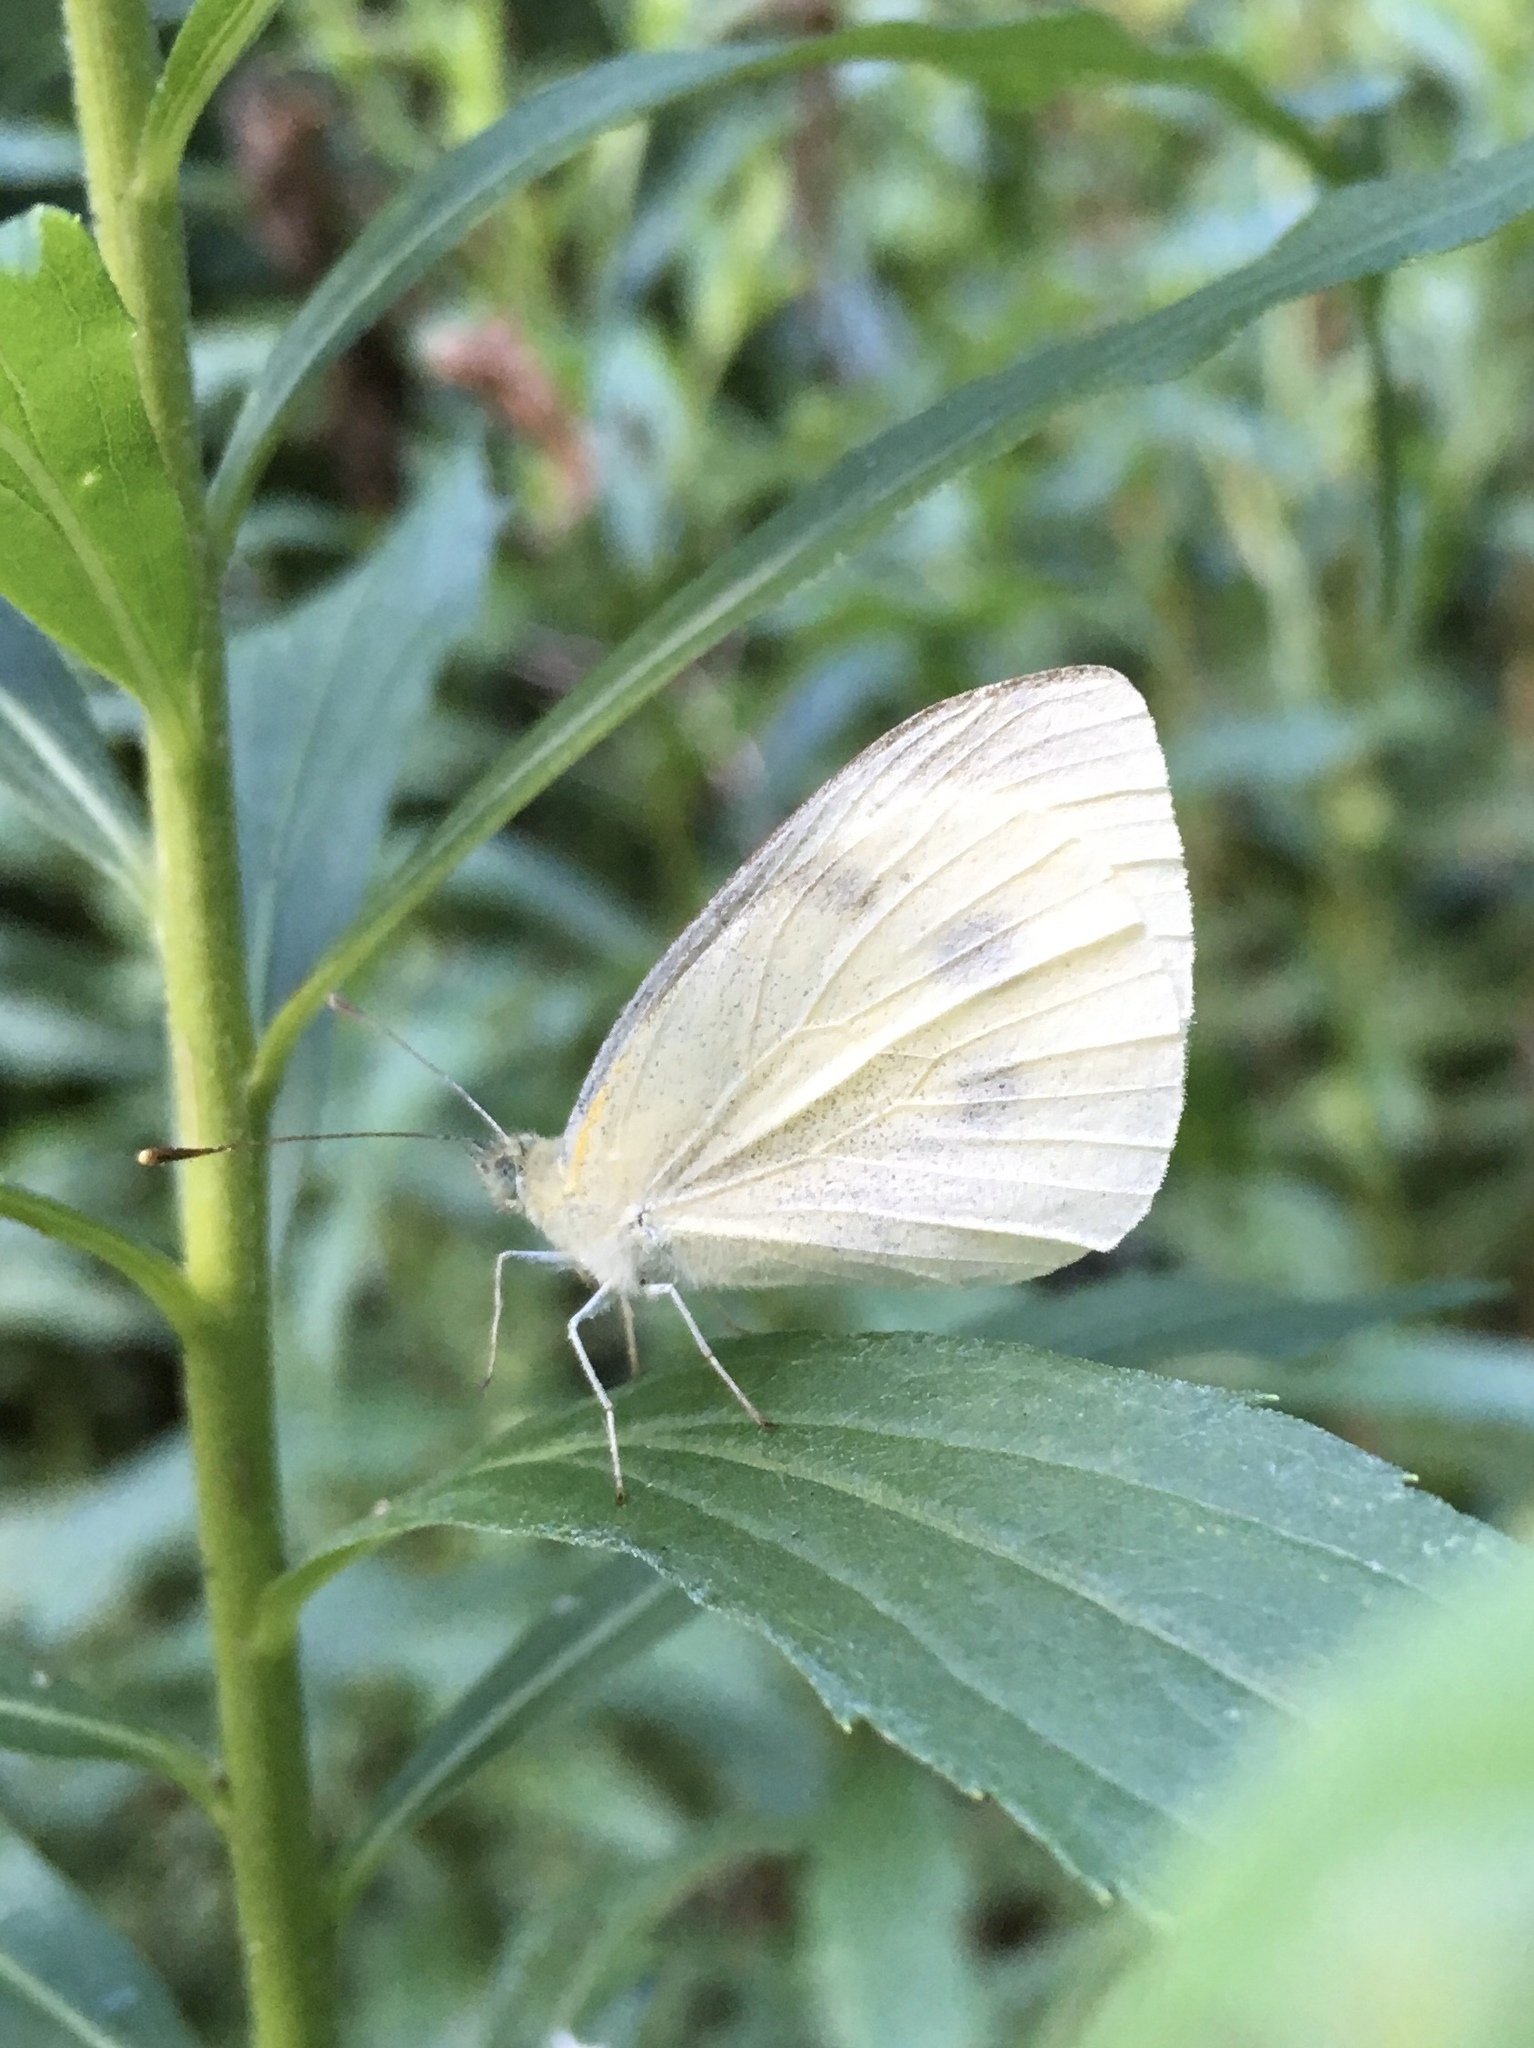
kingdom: Animalia
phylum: Arthropoda
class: Insecta
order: Lepidoptera
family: Pieridae
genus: Pieris
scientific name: Pieris rapae
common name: Small white
